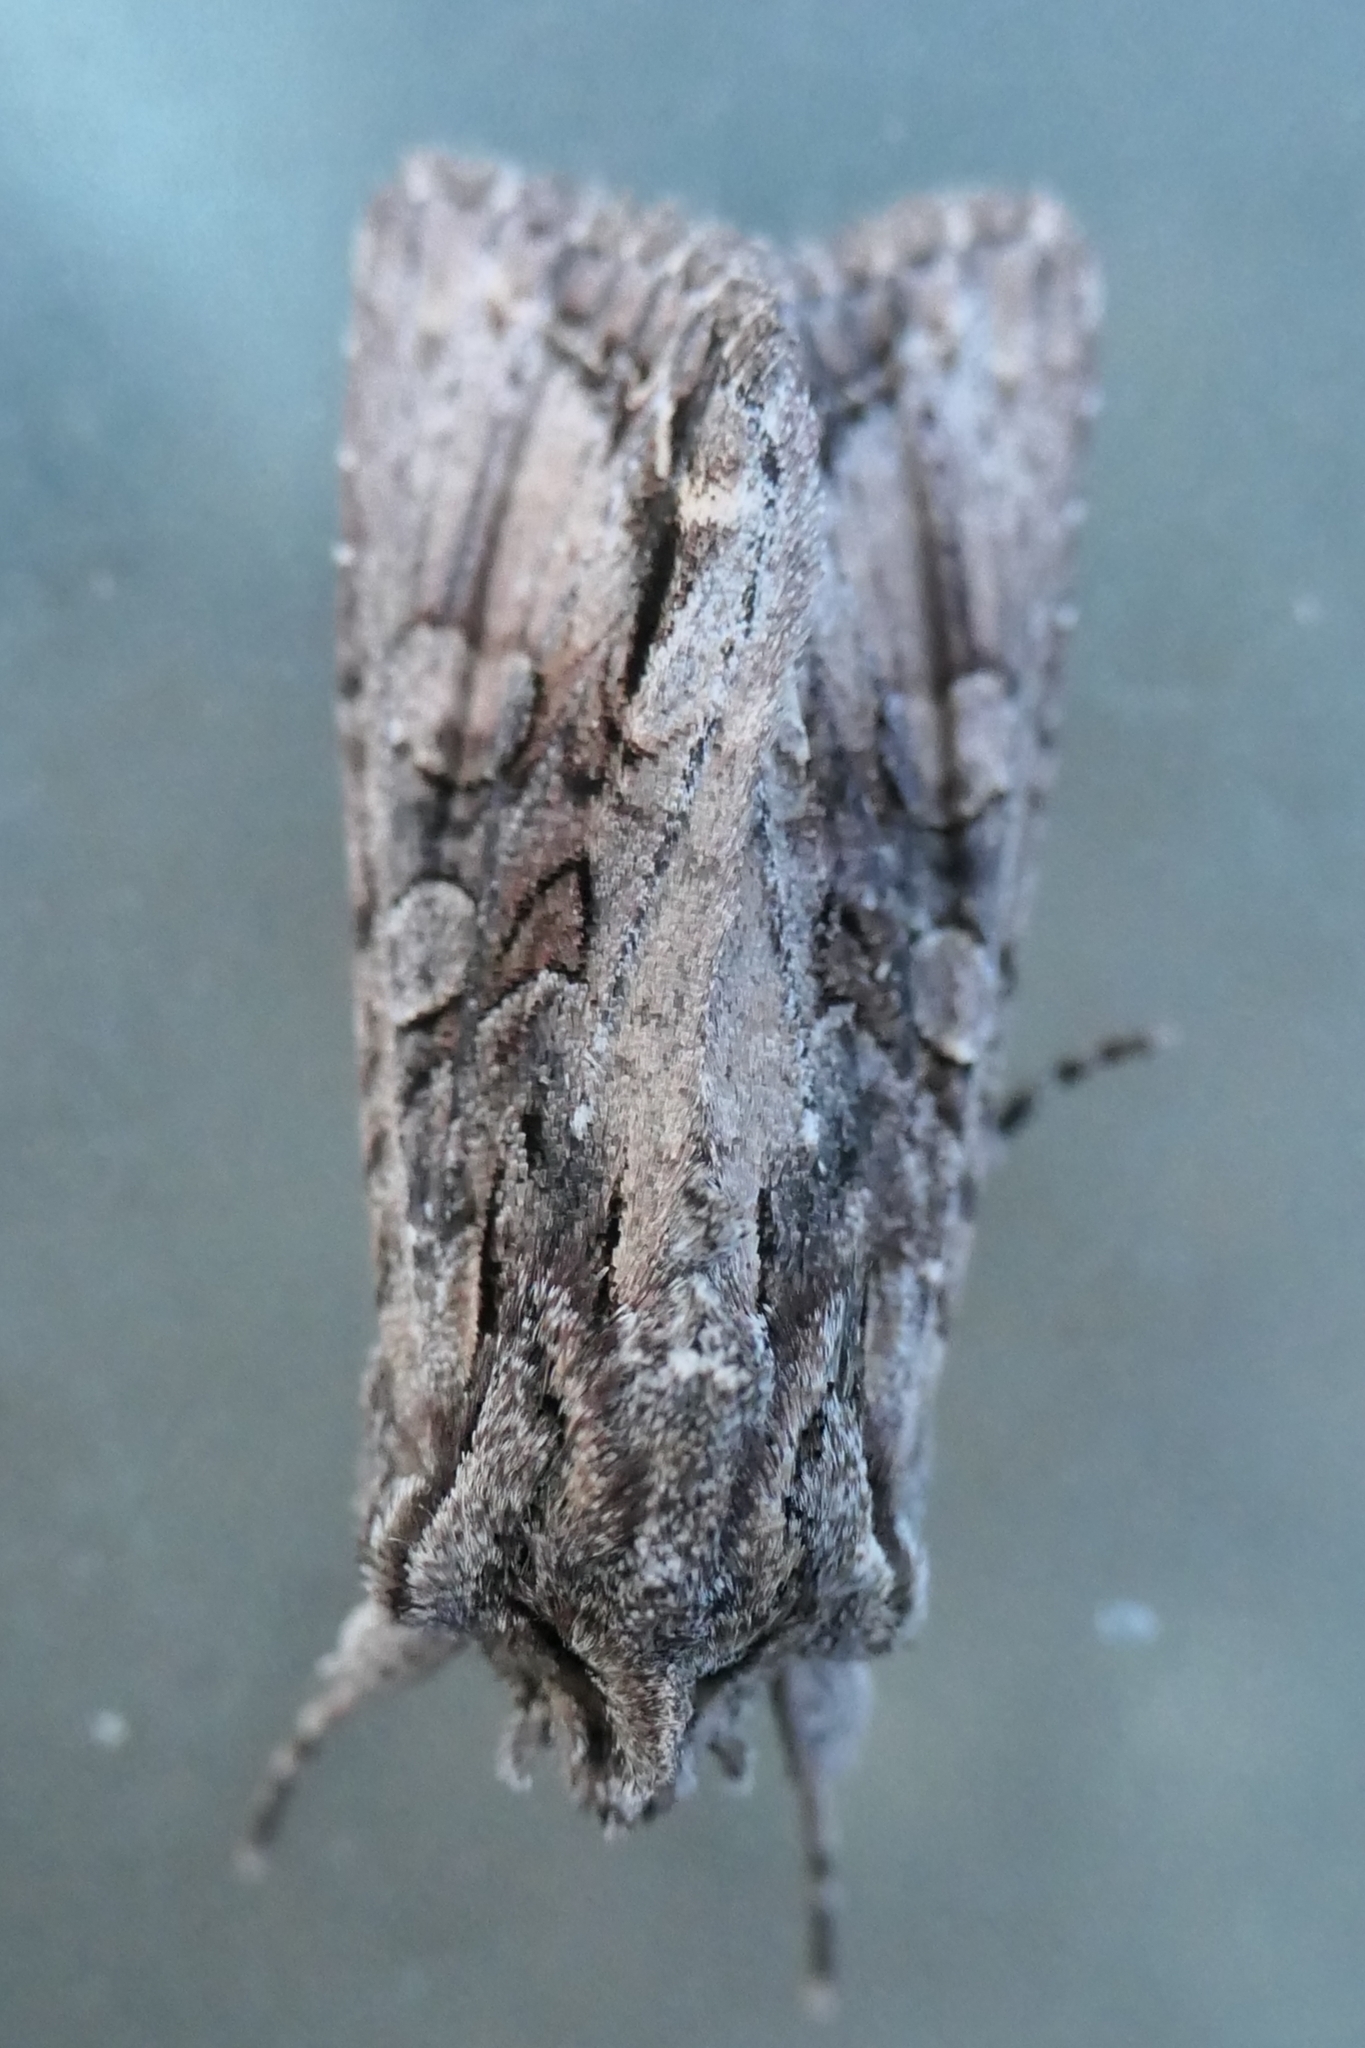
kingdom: Animalia
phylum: Arthropoda
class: Insecta
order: Lepidoptera
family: Noctuidae
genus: Ichneutica
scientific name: Ichneutica mutans
